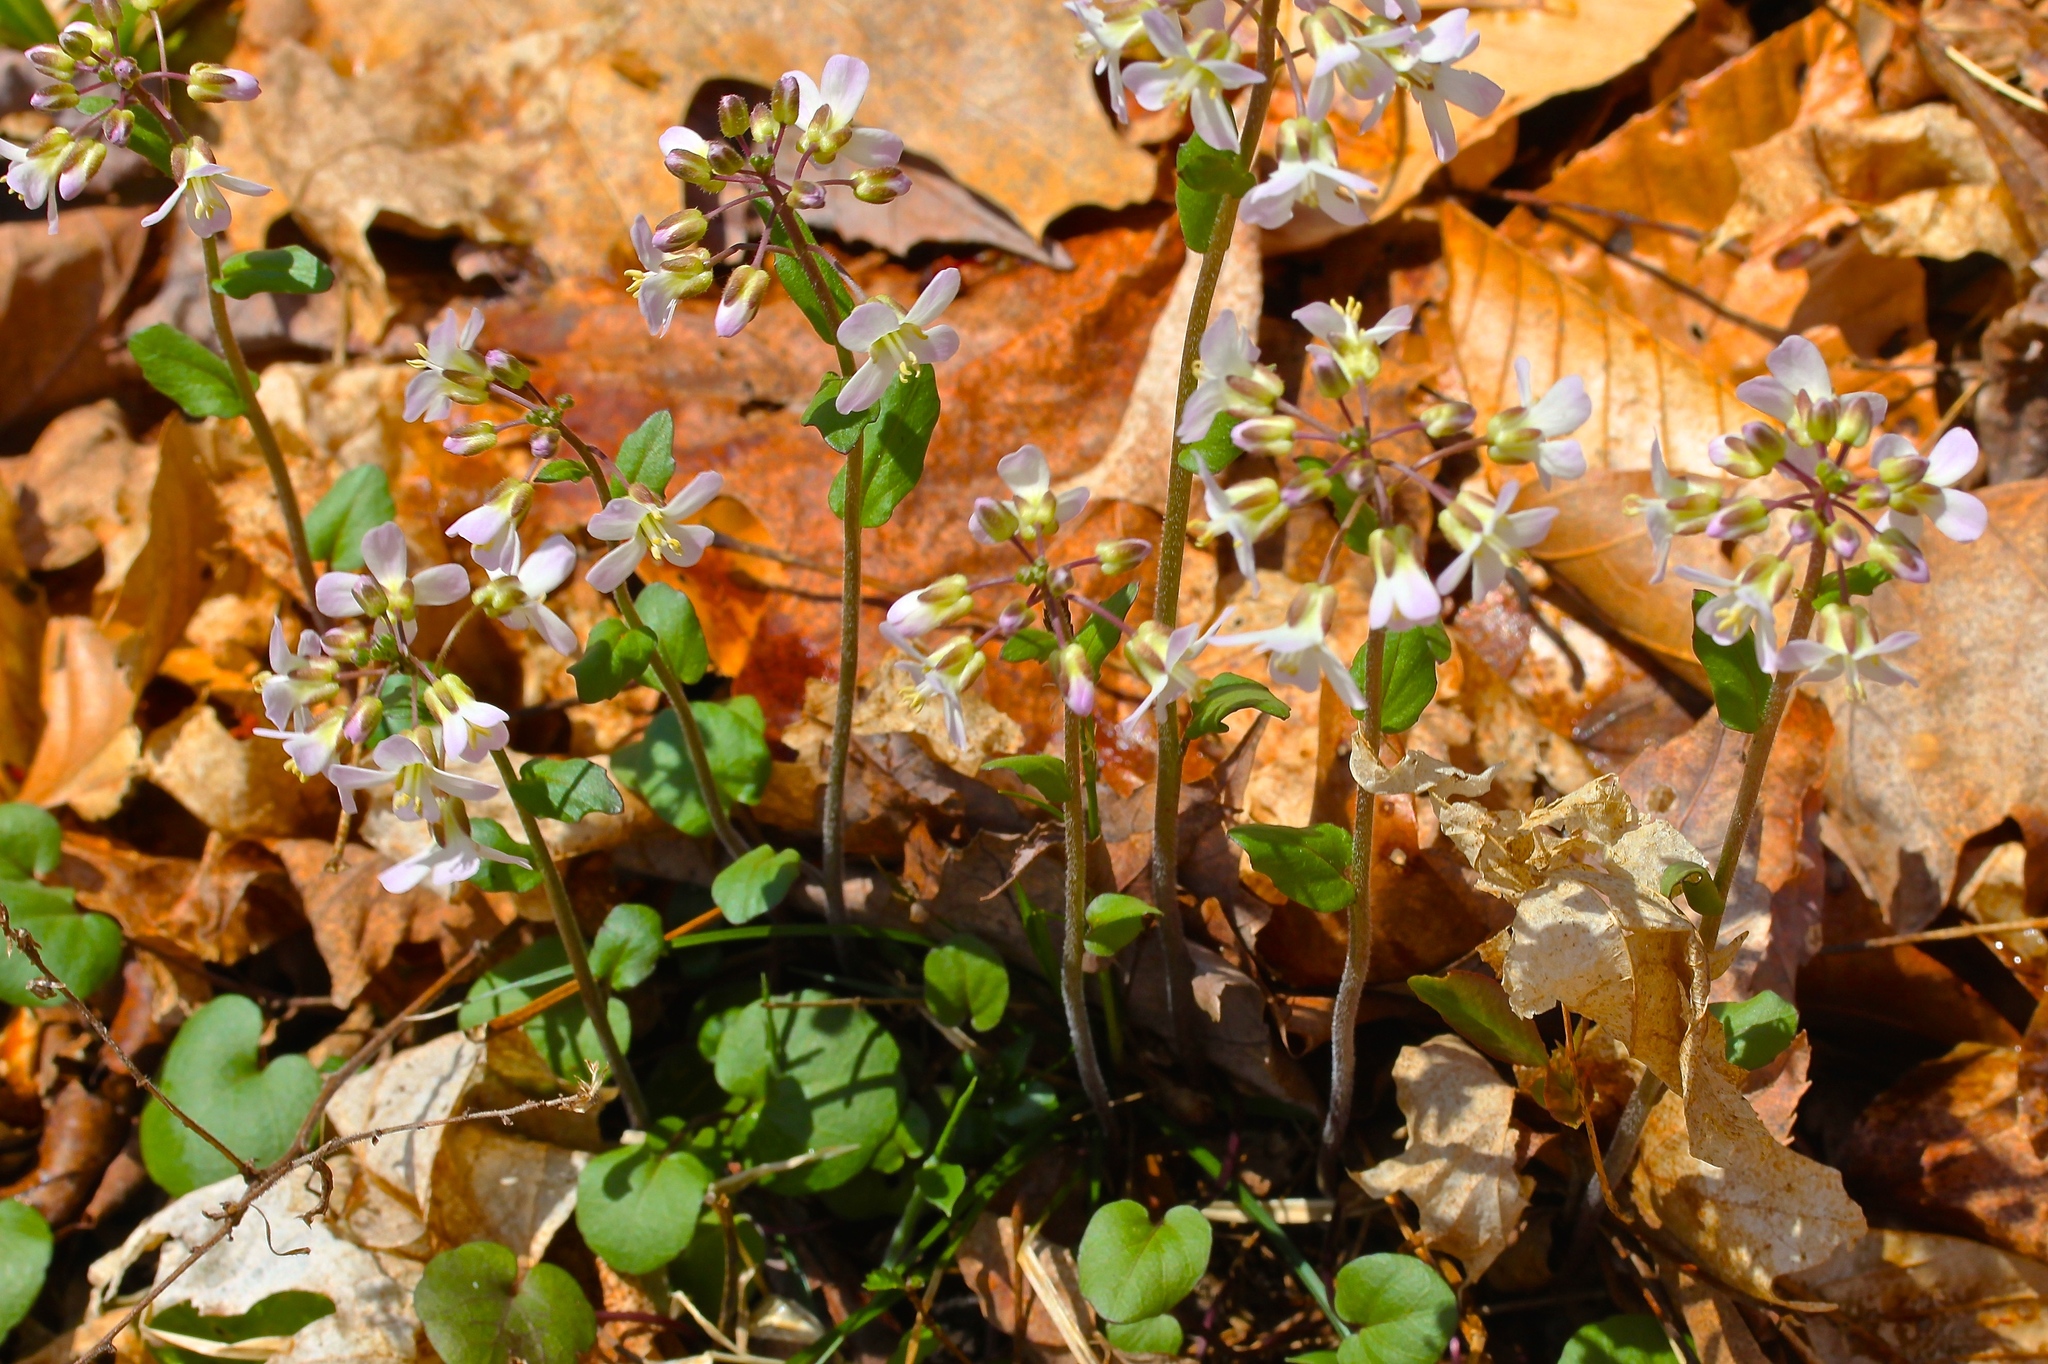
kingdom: Plantae
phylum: Tracheophyta
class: Magnoliopsida
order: Brassicales
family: Brassicaceae
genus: Cardamine
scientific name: Cardamine douglassii
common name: Purple cress
